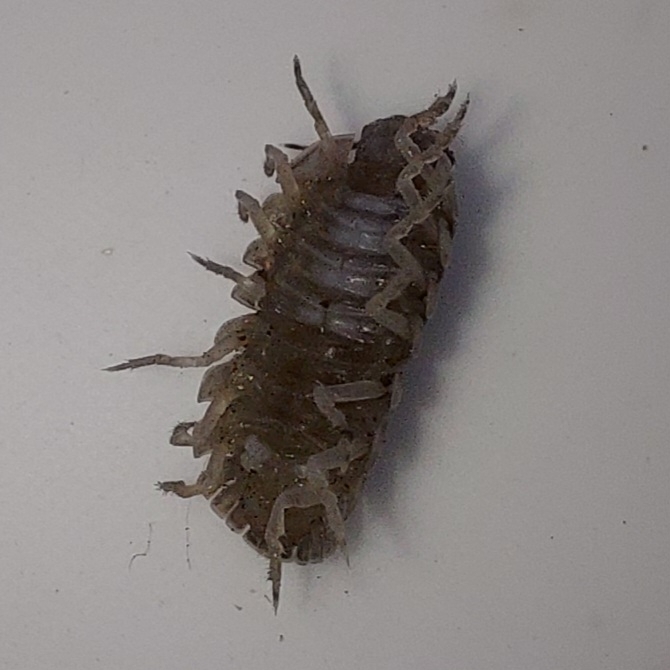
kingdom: Animalia
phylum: Arthropoda
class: Malacostraca
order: Isopoda
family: Armadillidiidae
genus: Armadillidium
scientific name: Armadillidium vulgare
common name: Common pill woodlouse
